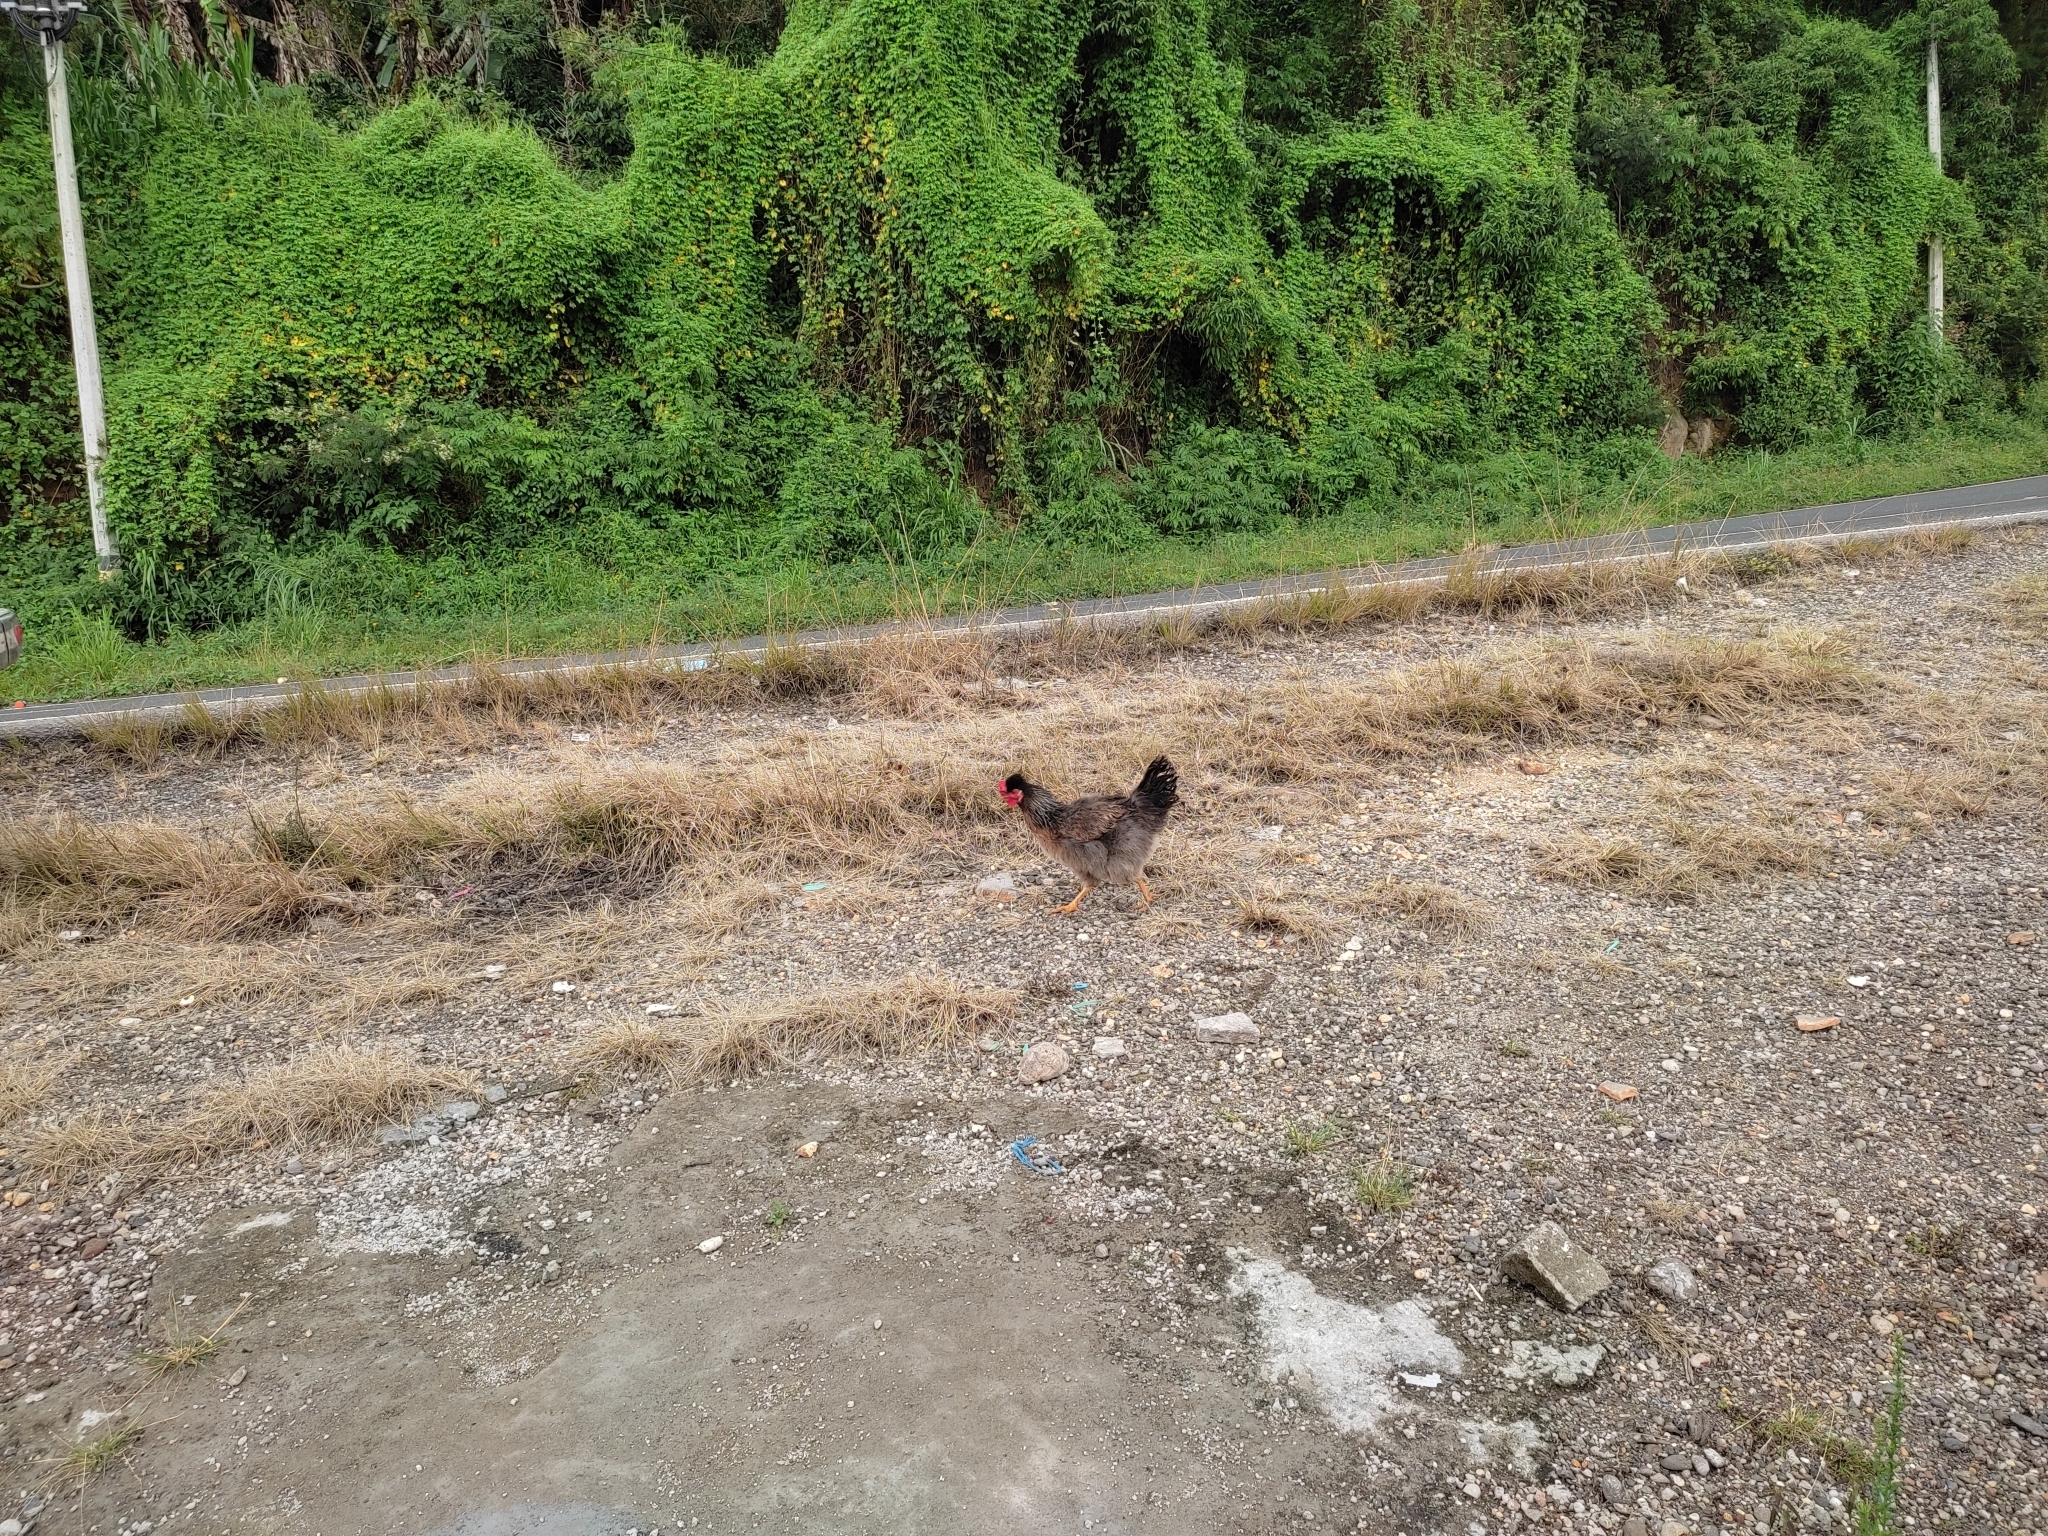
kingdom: Animalia
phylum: Chordata
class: Aves
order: Galliformes
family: Phasianidae
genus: Gallus
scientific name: Gallus gallus
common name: Red junglefowl
